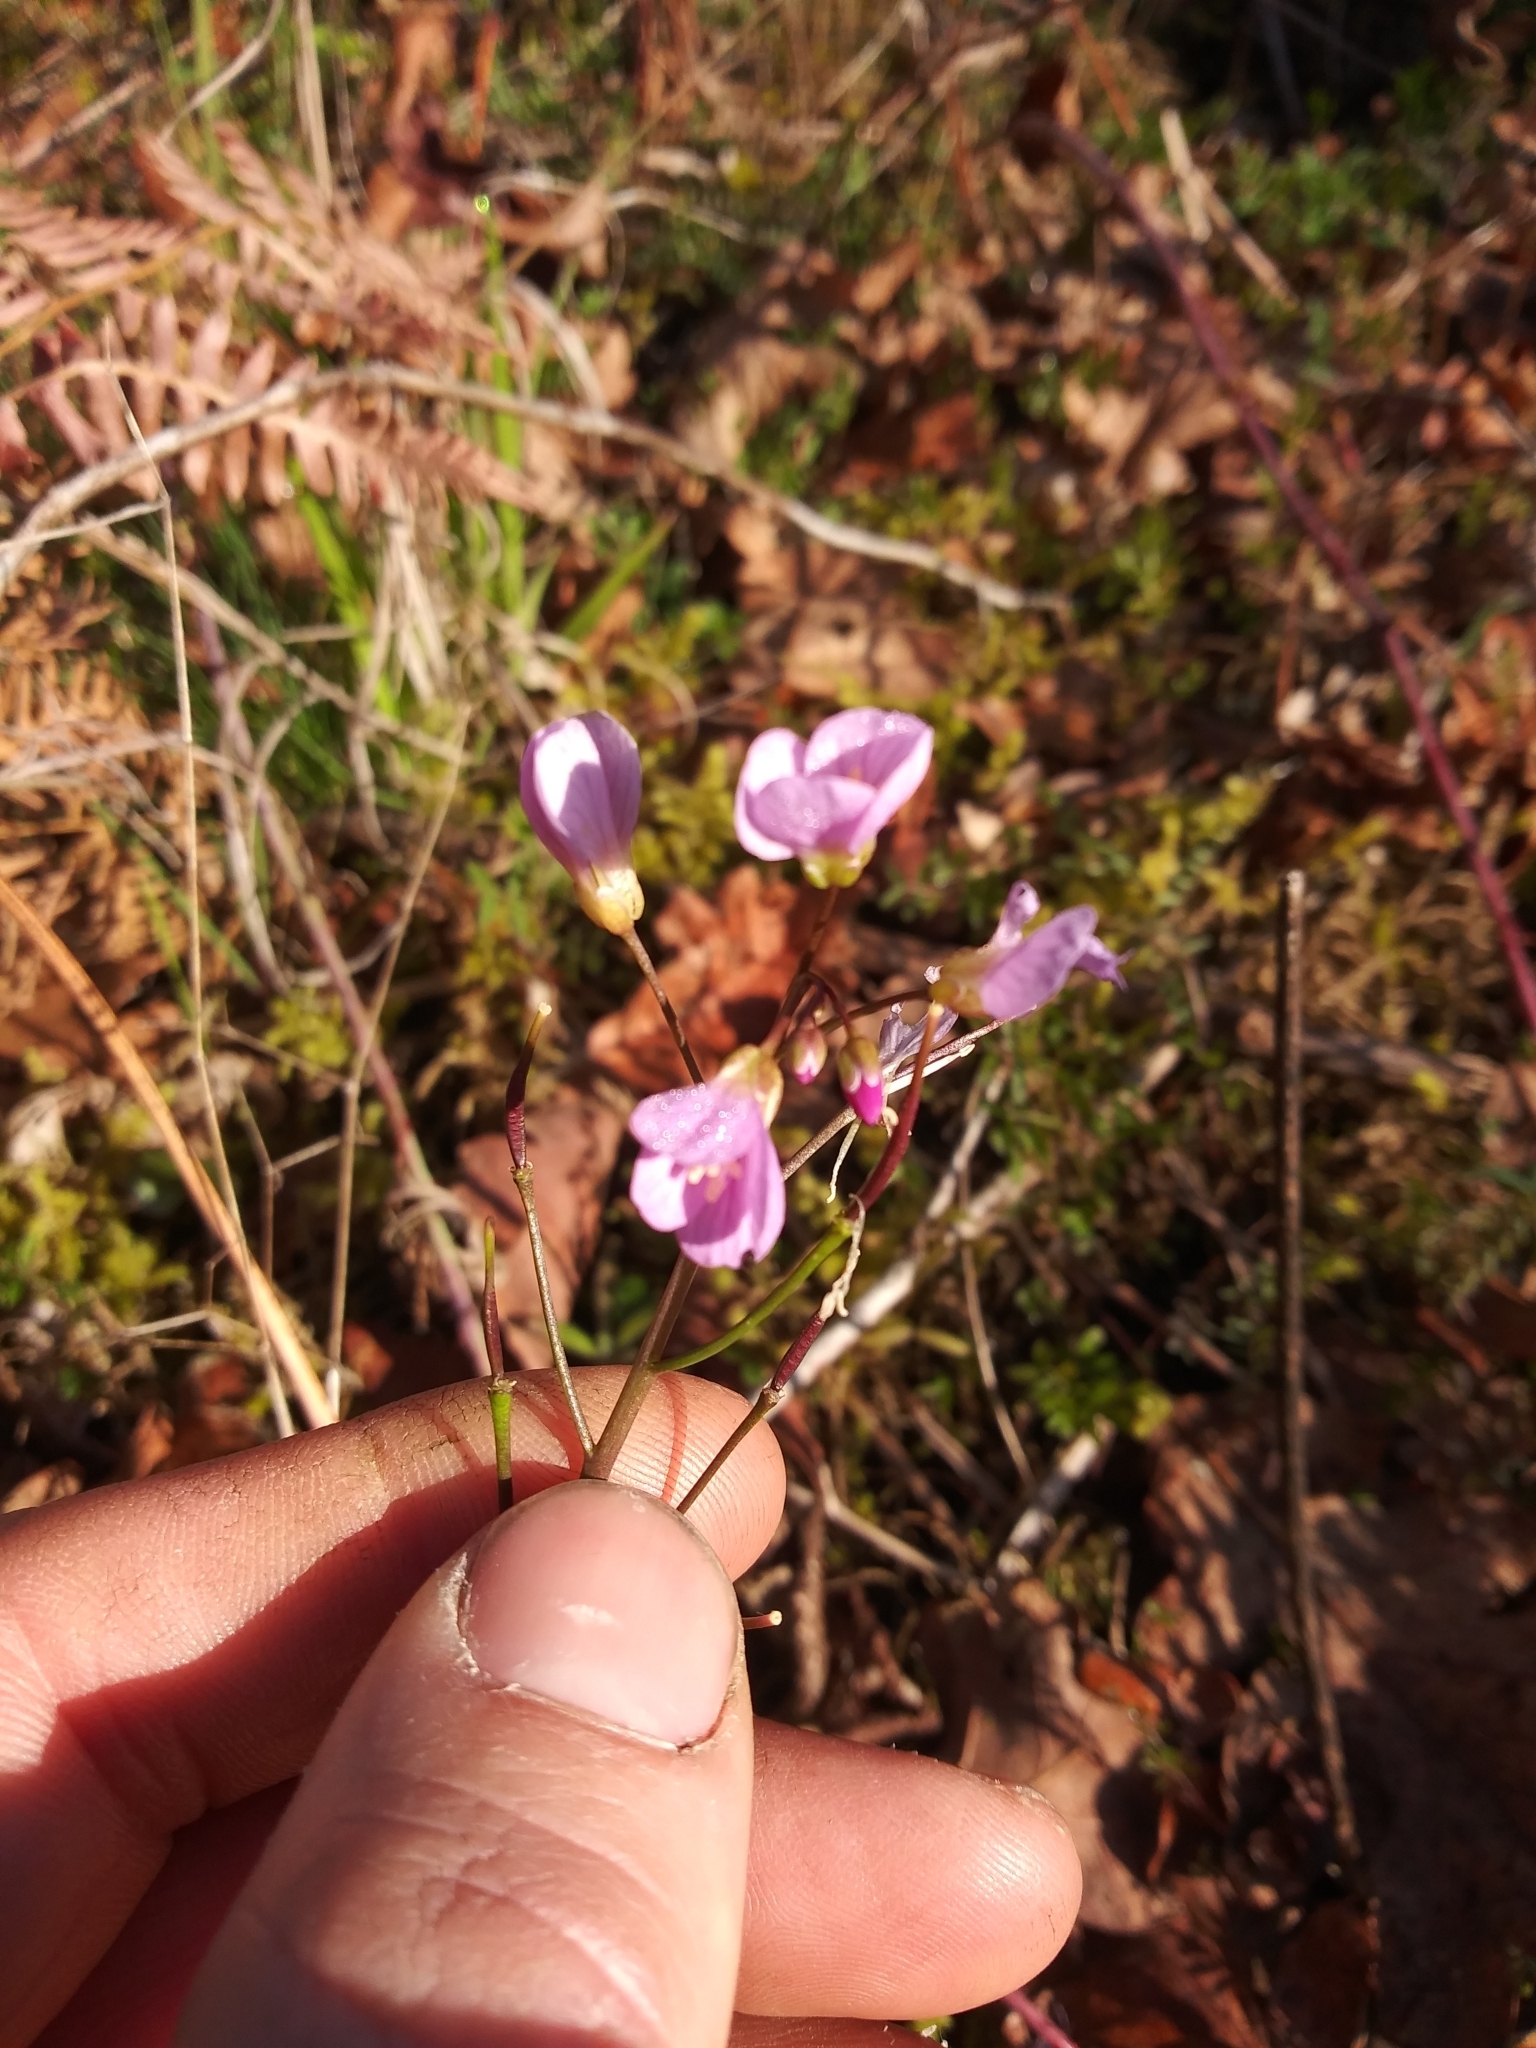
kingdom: Plantae
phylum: Tracheophyta
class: Magnoliopsida
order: Brassicales
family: Brassicaceae
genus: Cardamine
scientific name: Cardamine nuttallii
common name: Nuttall's toothwort
